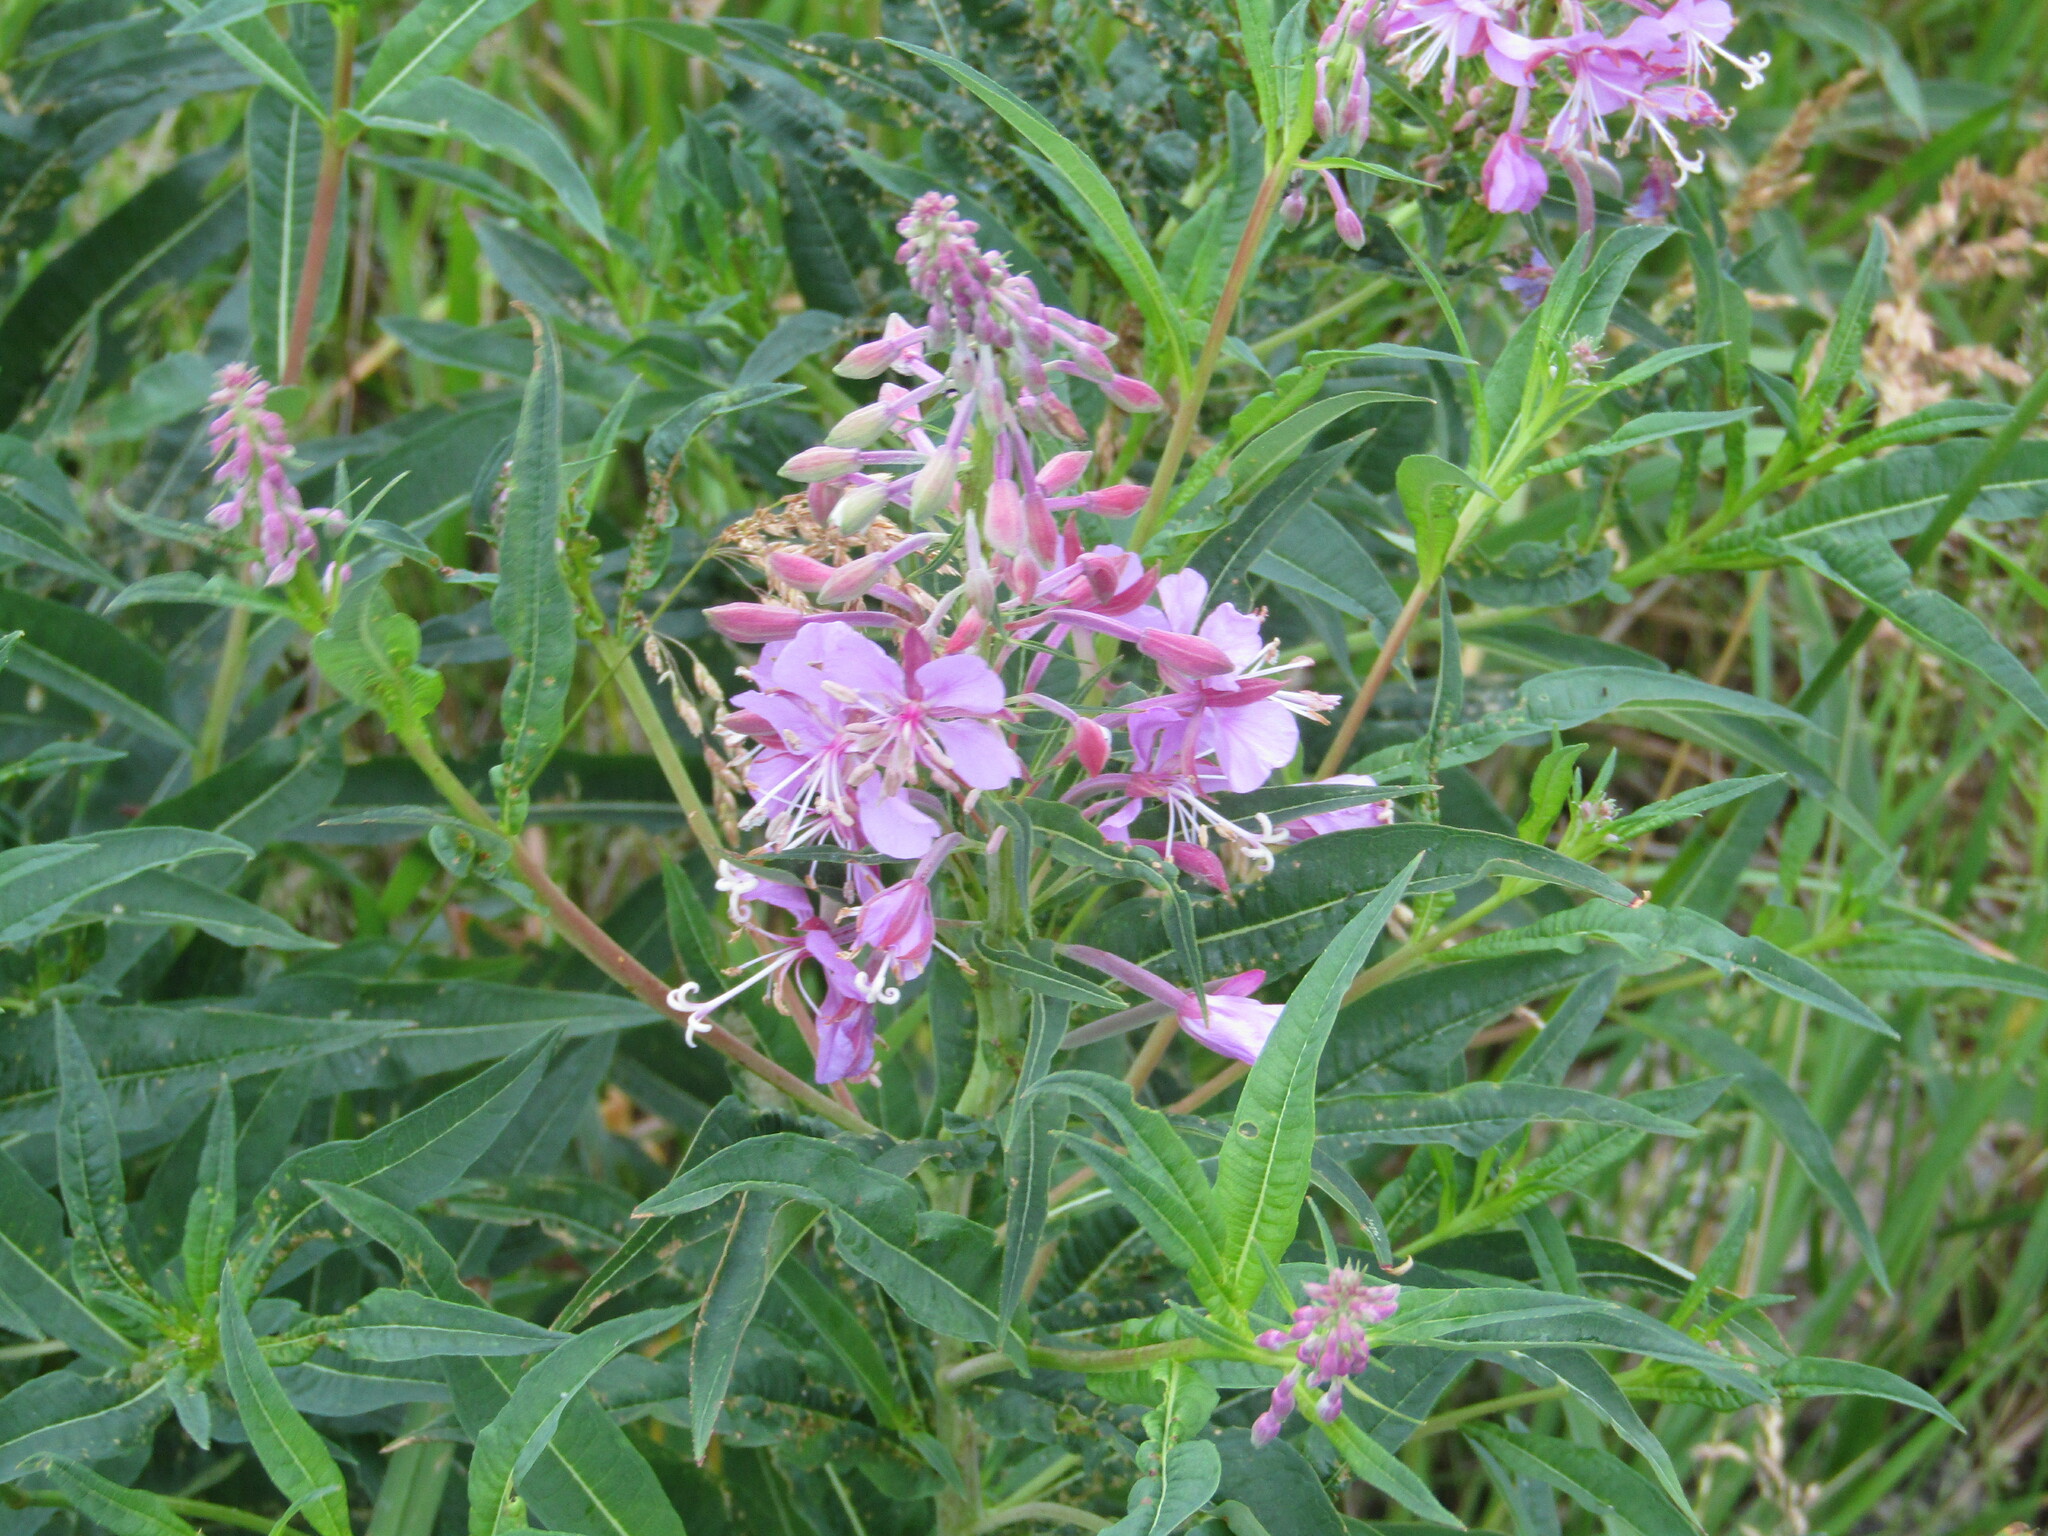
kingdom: Plantae
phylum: Tracheophyta
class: Magnoliopsida
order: Myrtales
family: Onagraceae
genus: Chamaenerion
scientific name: Chamaenerion angustifolium
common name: Fireweed
